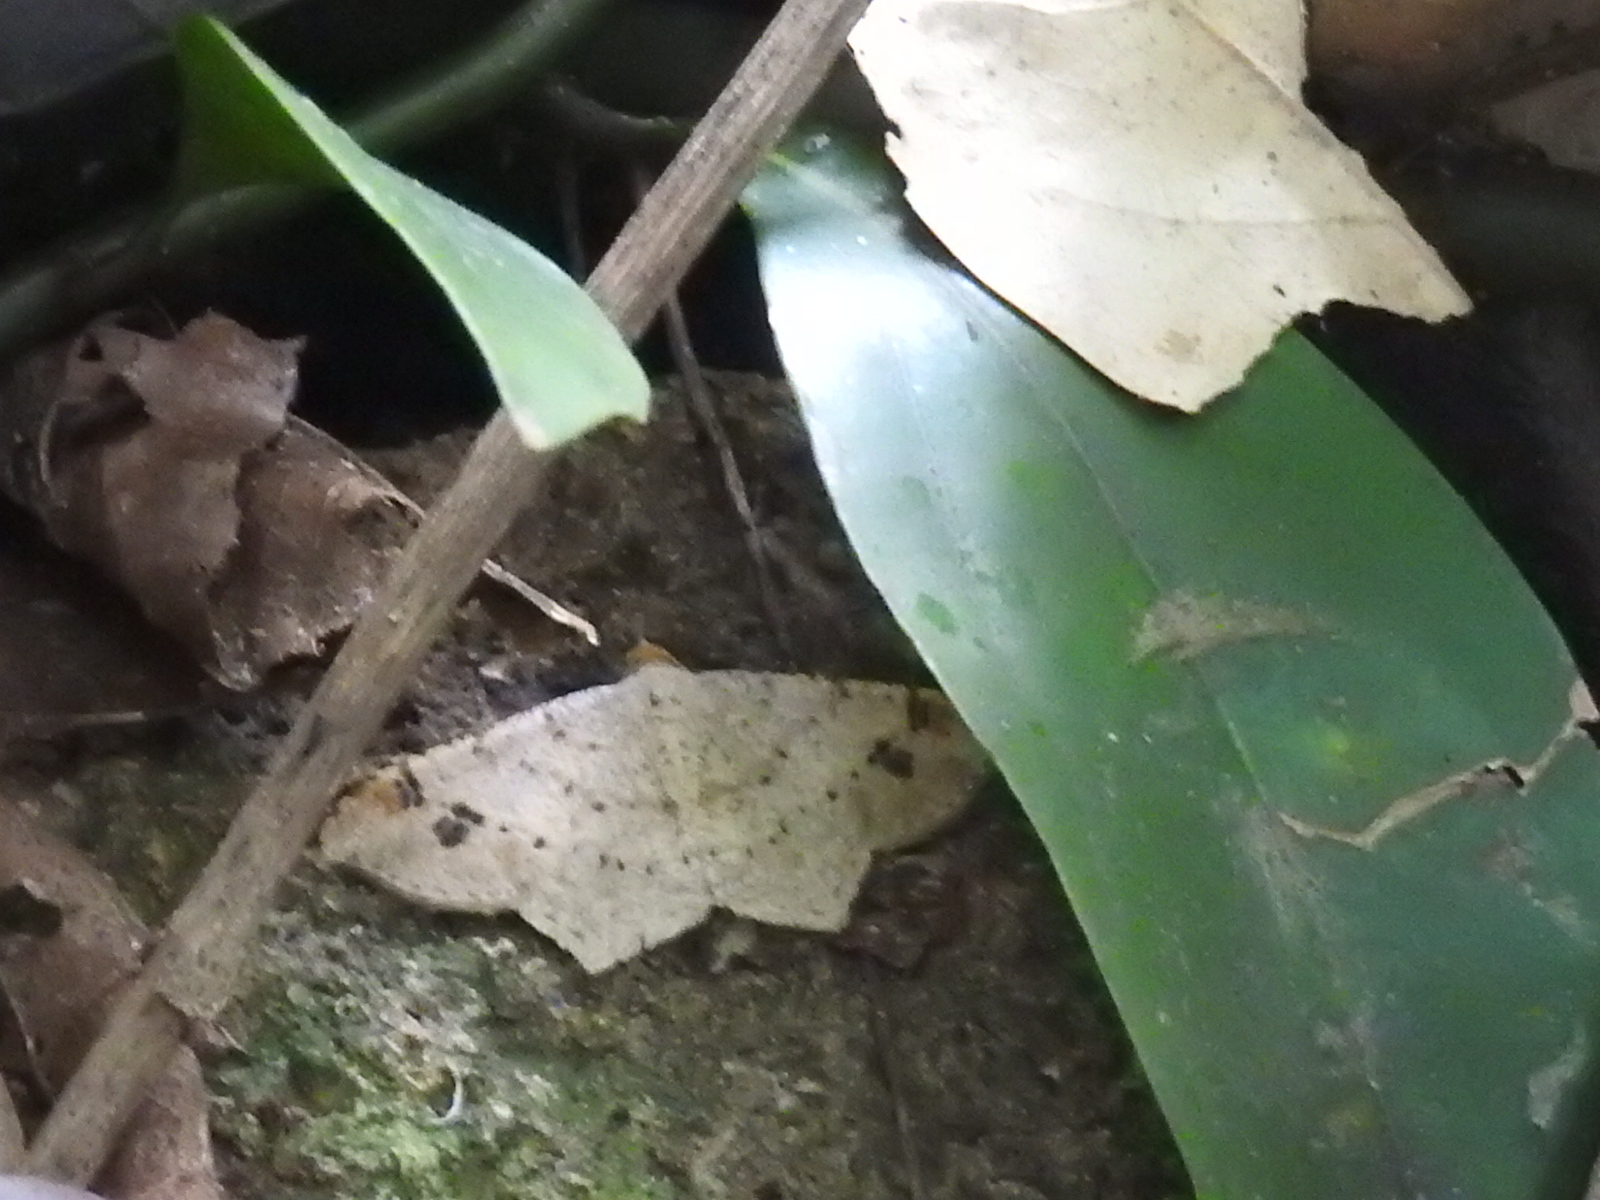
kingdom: Animalia
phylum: Arthropoda
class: Insecta
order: Lepidoptera
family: Geometridae
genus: Macaria
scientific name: Macaria abydata
